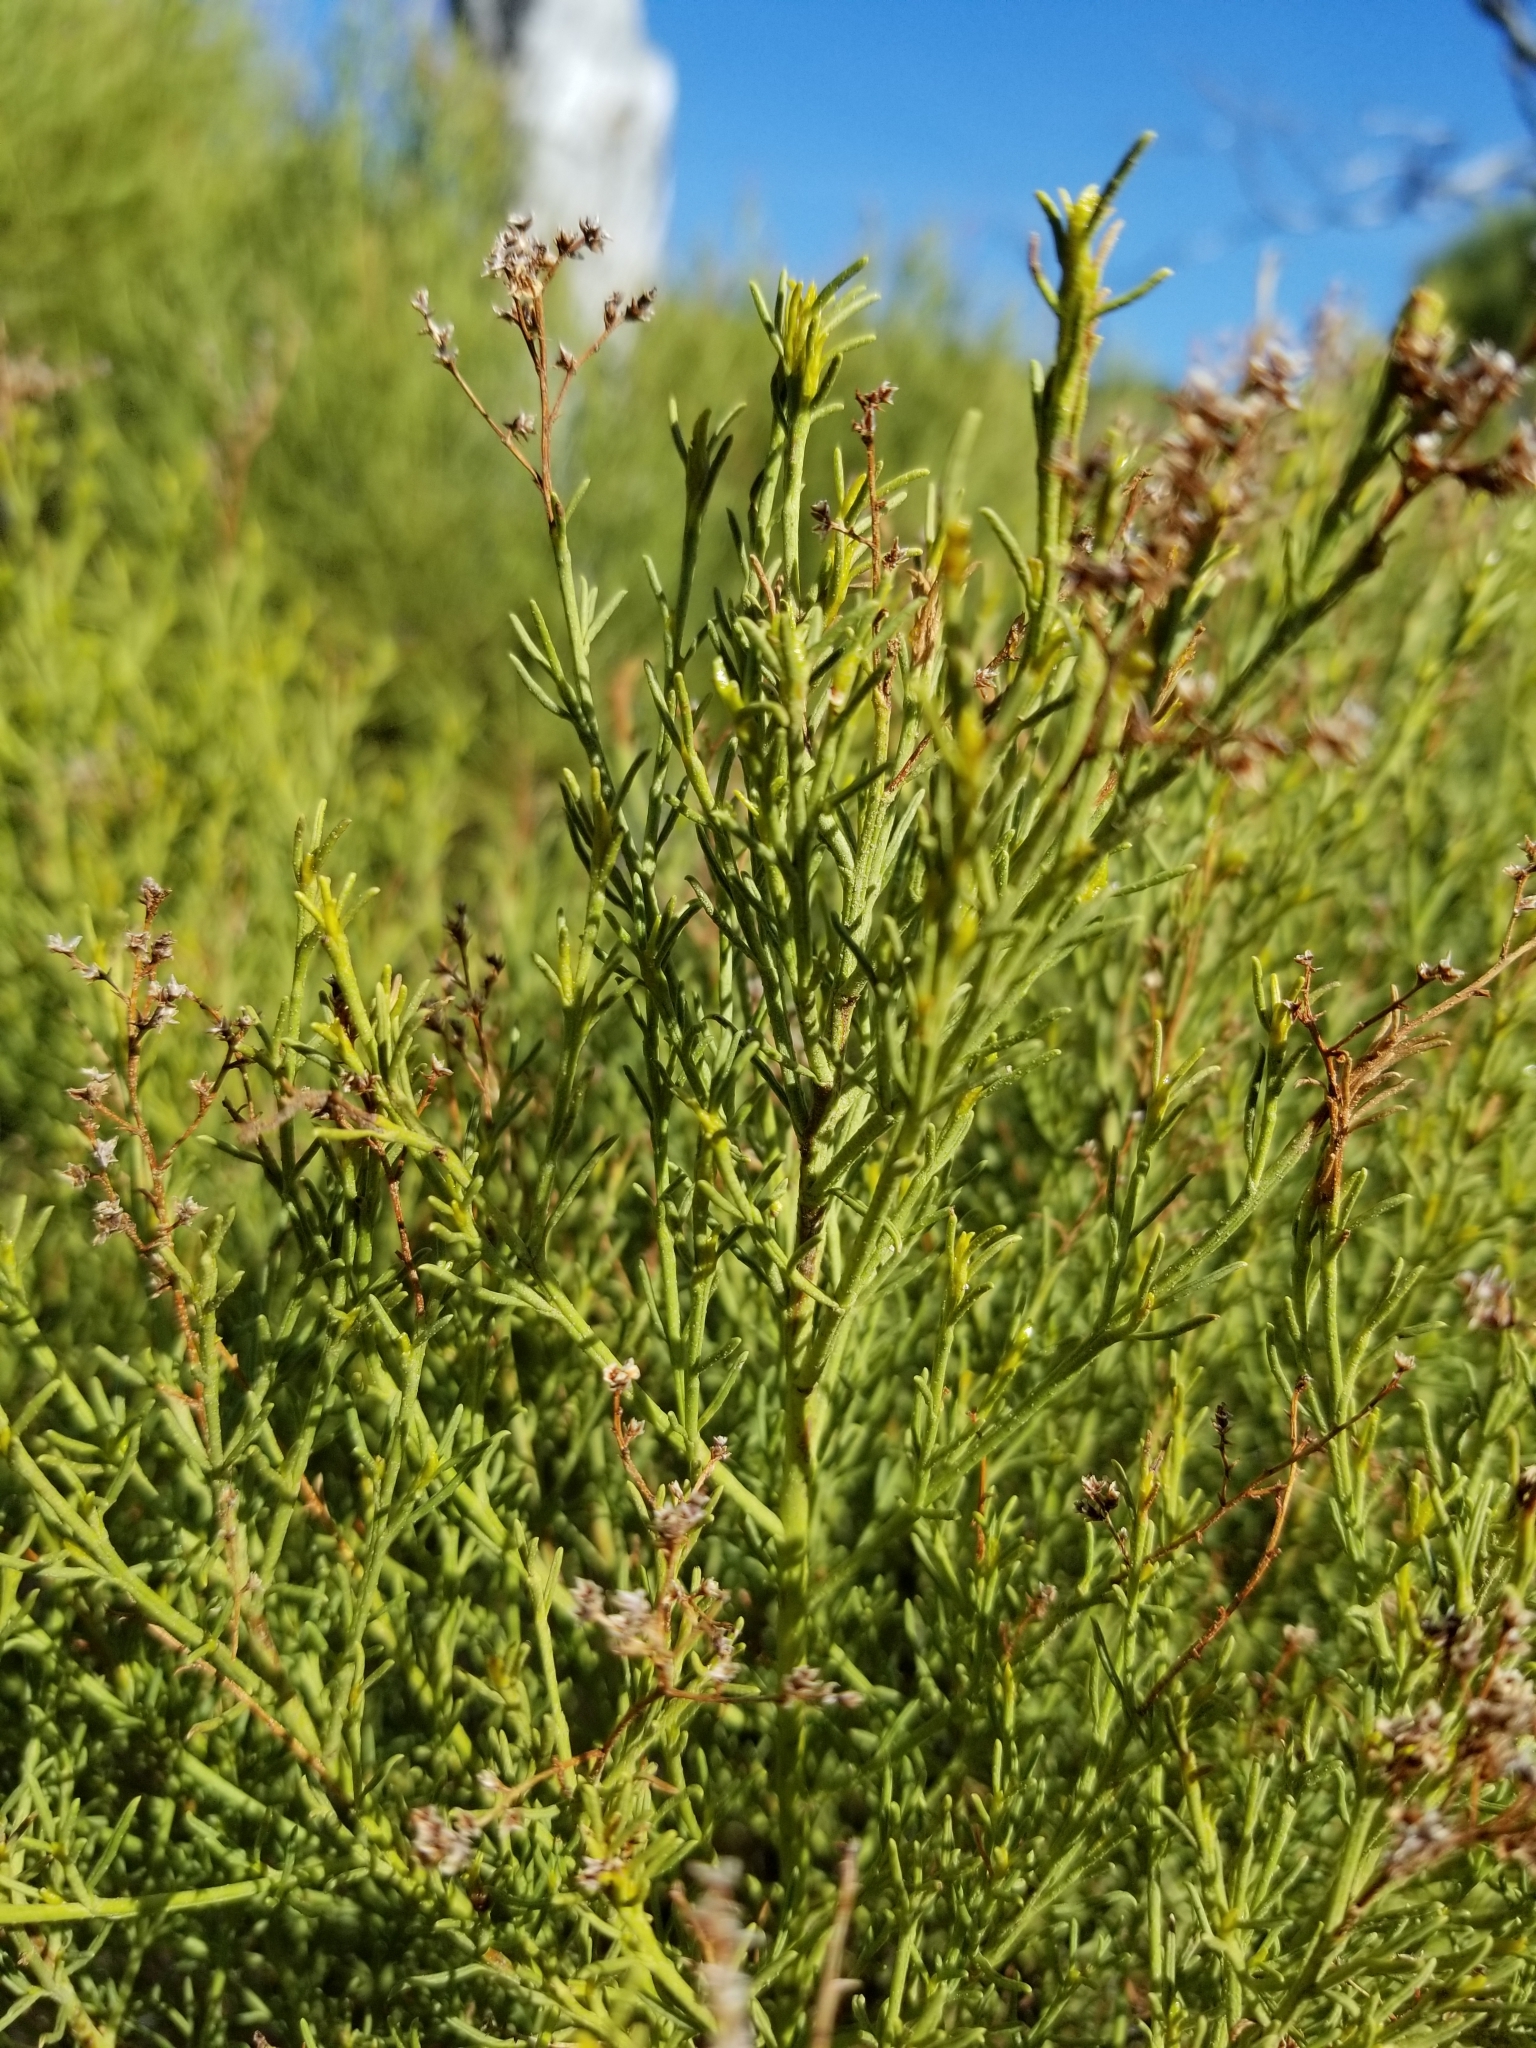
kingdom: Plantae
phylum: Tracheophyta
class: Magnoliopsida
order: Rosales
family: Rosaceae
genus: Adenostoma
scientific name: Adenostoma sparsifolium
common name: Red shank
